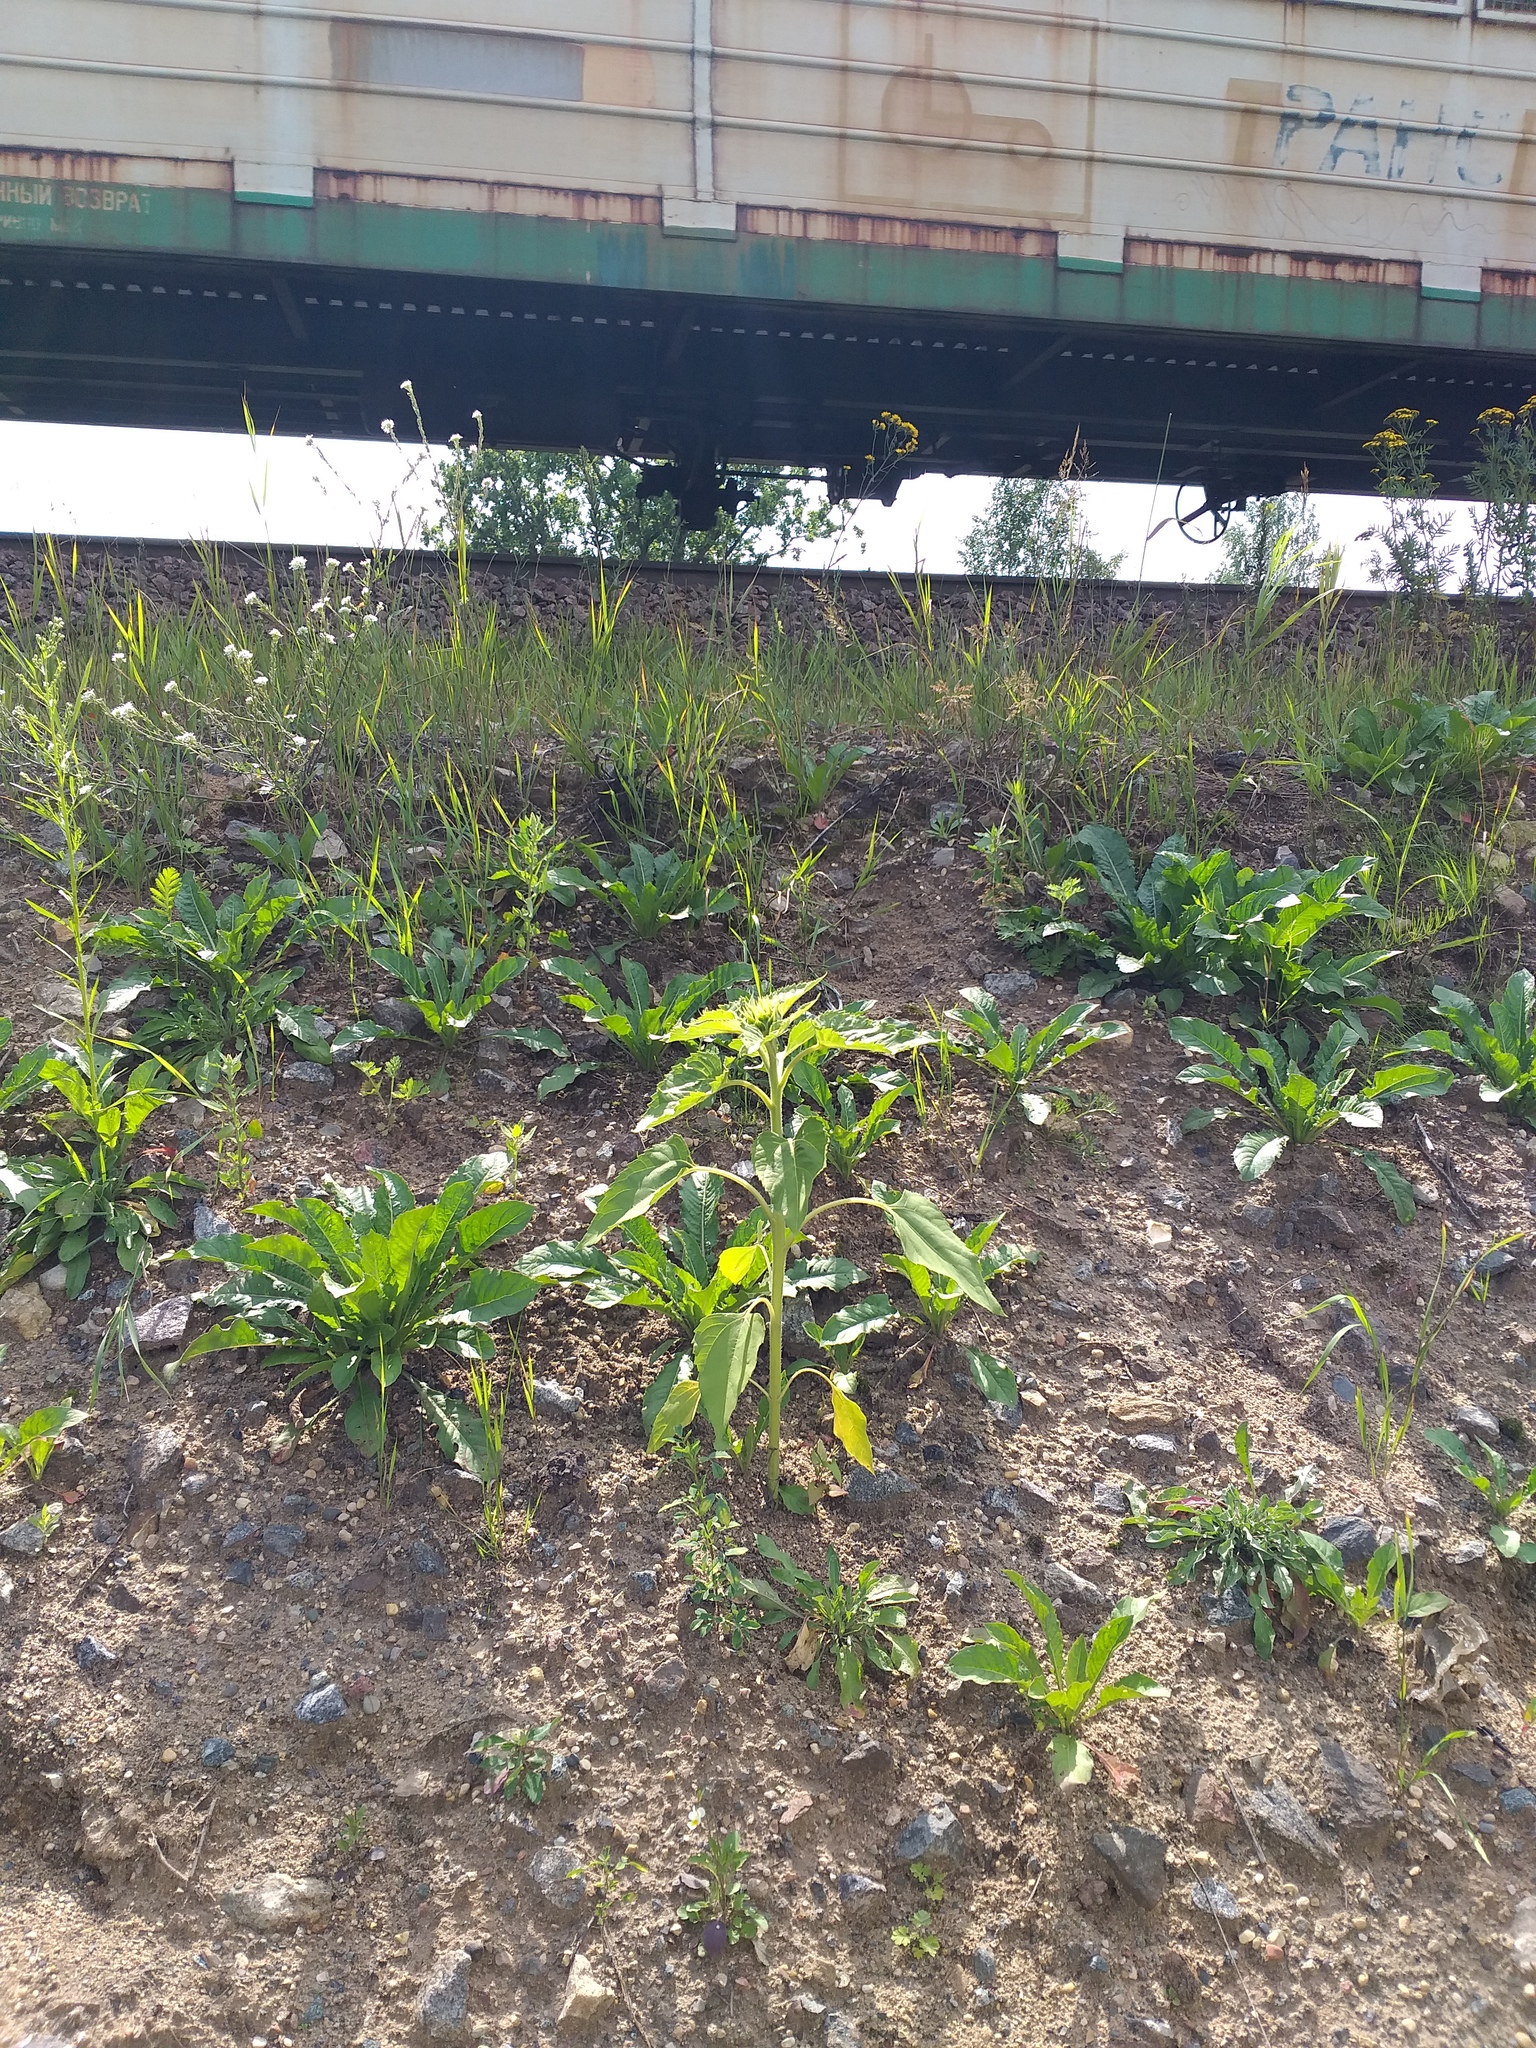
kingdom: Plantae
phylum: Tracheophyta
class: Magnoliopsida
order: Asterales
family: Asteraceae
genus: Helianthus
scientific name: Helianthus annuus
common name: Sunflower
